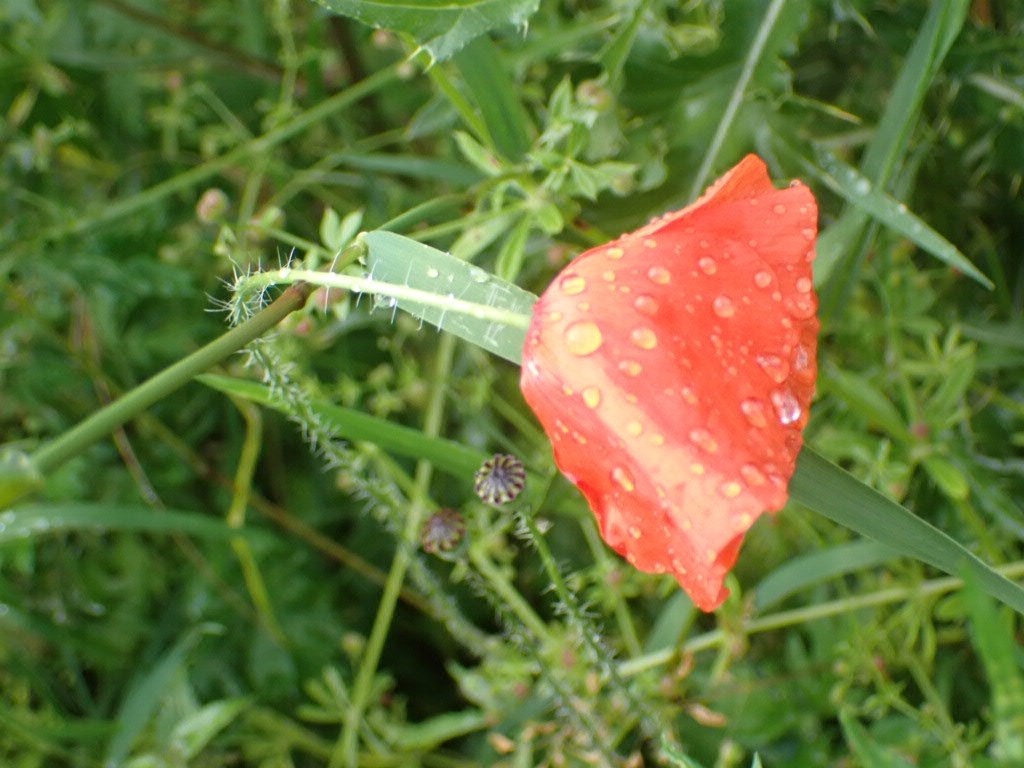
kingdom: Plantae
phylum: Tracheophyta
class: Magnoliopsida
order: Ranunculales
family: Papaveraceae
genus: Papaver
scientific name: Papaver rhoeas
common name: Corn poppy
